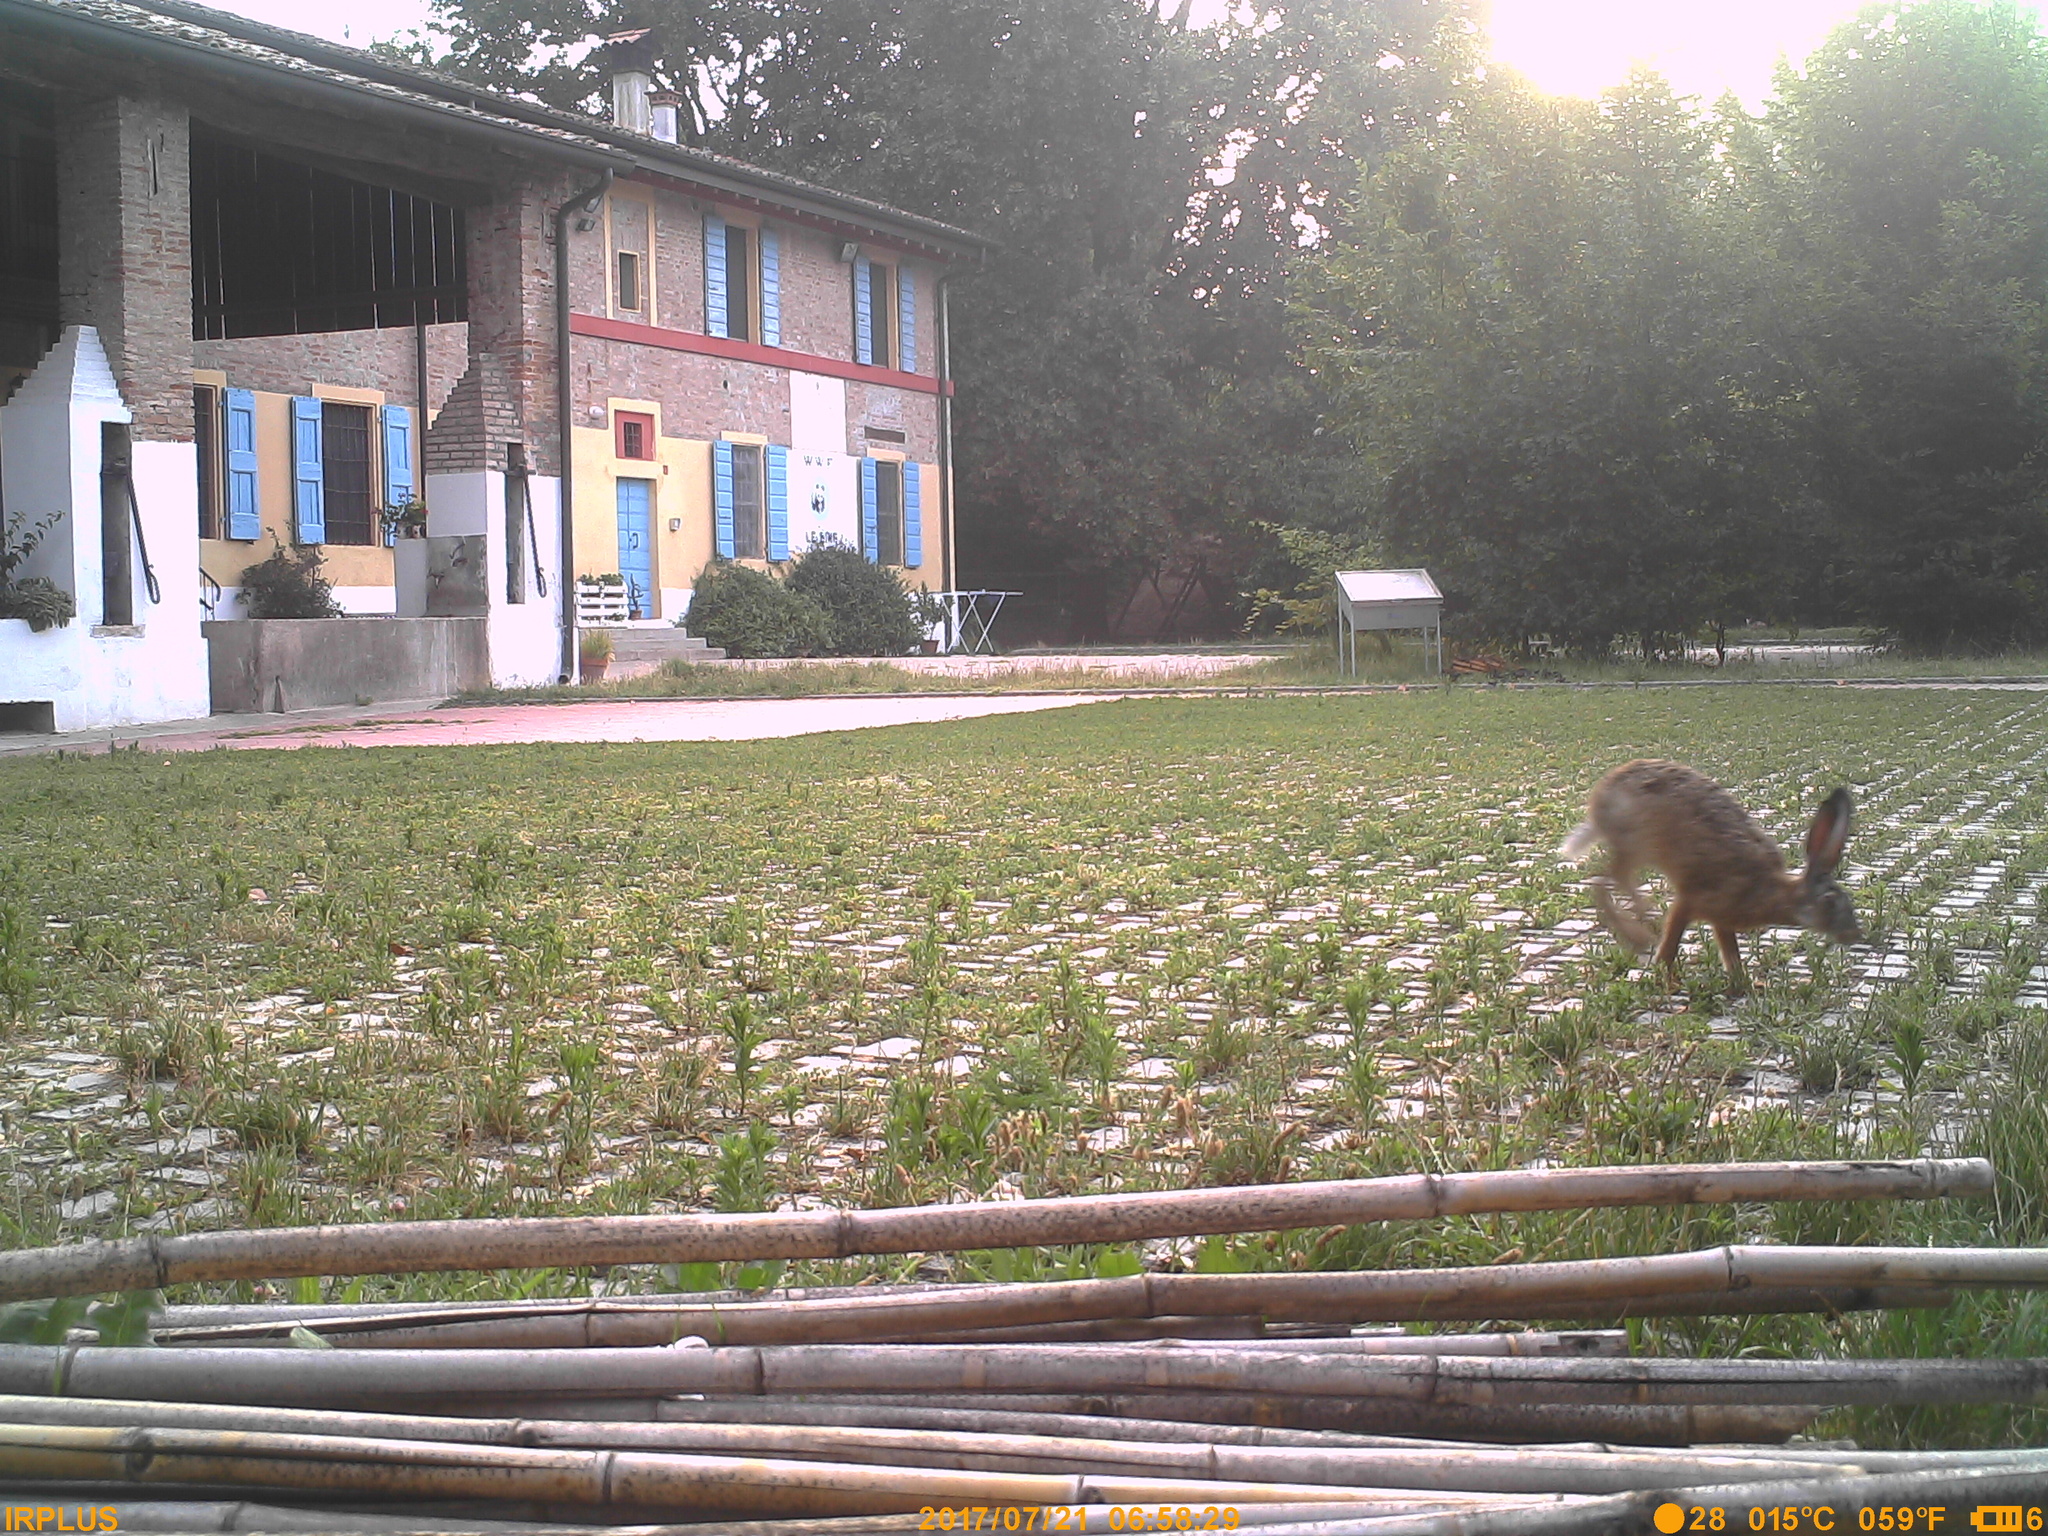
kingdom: Animalia
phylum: Chordata
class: Mammalia
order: Lagomorpha
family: Leporidae
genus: Lepus
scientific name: Lepus europaeus
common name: European hare
